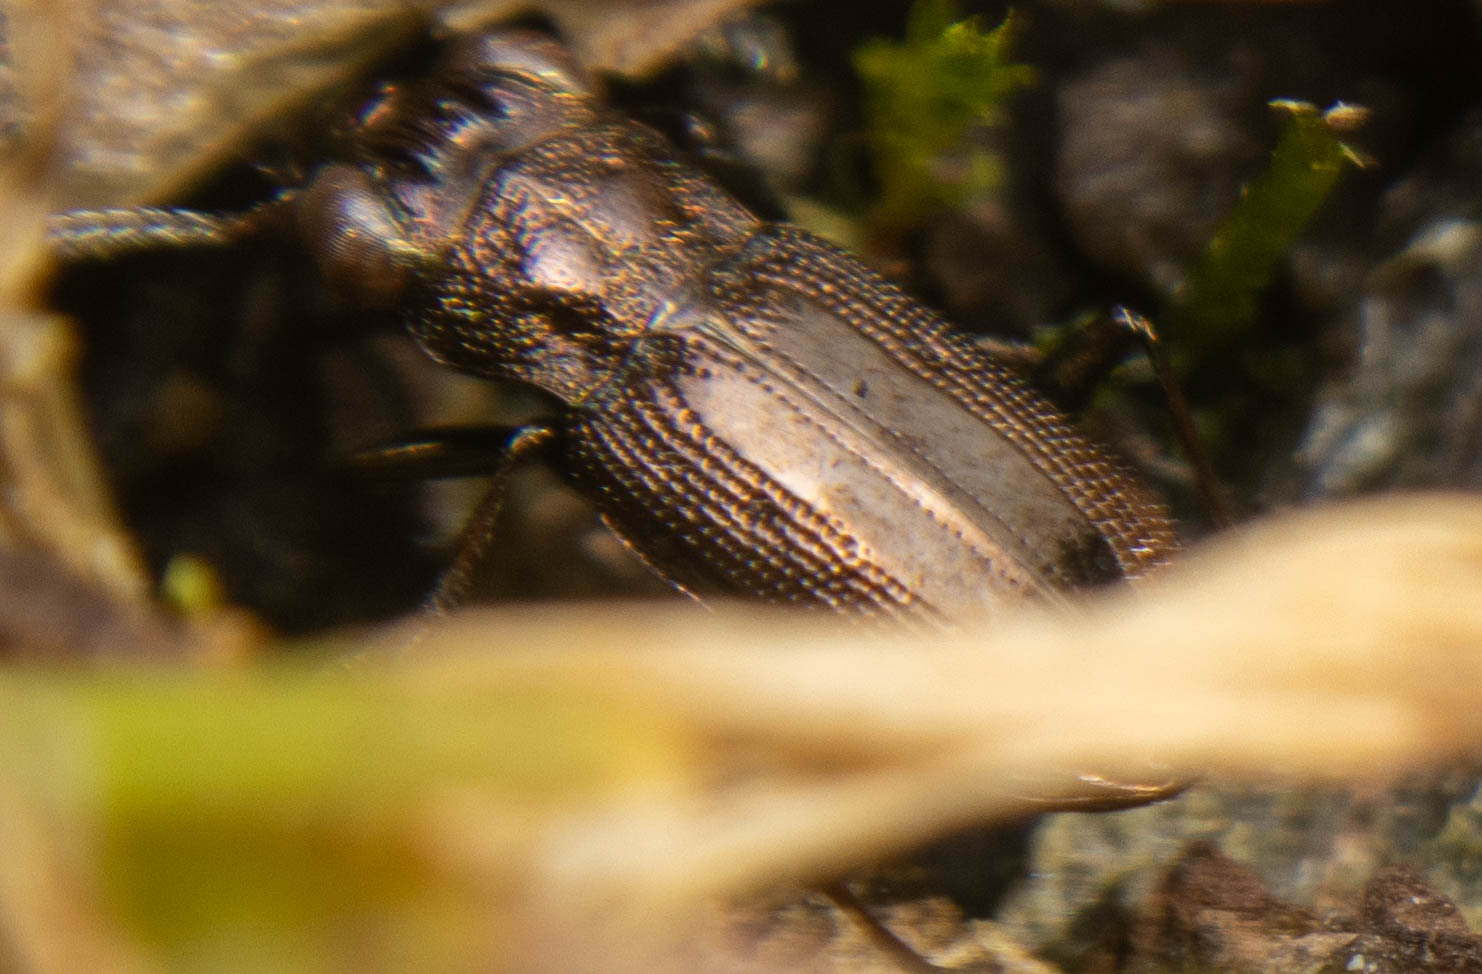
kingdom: Animalia
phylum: Arthropoda
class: Insecta
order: Coleoptera
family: Carabidae
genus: Notiophilus
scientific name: Notiophilus biguttatus
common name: Spotted gazelle beetle
